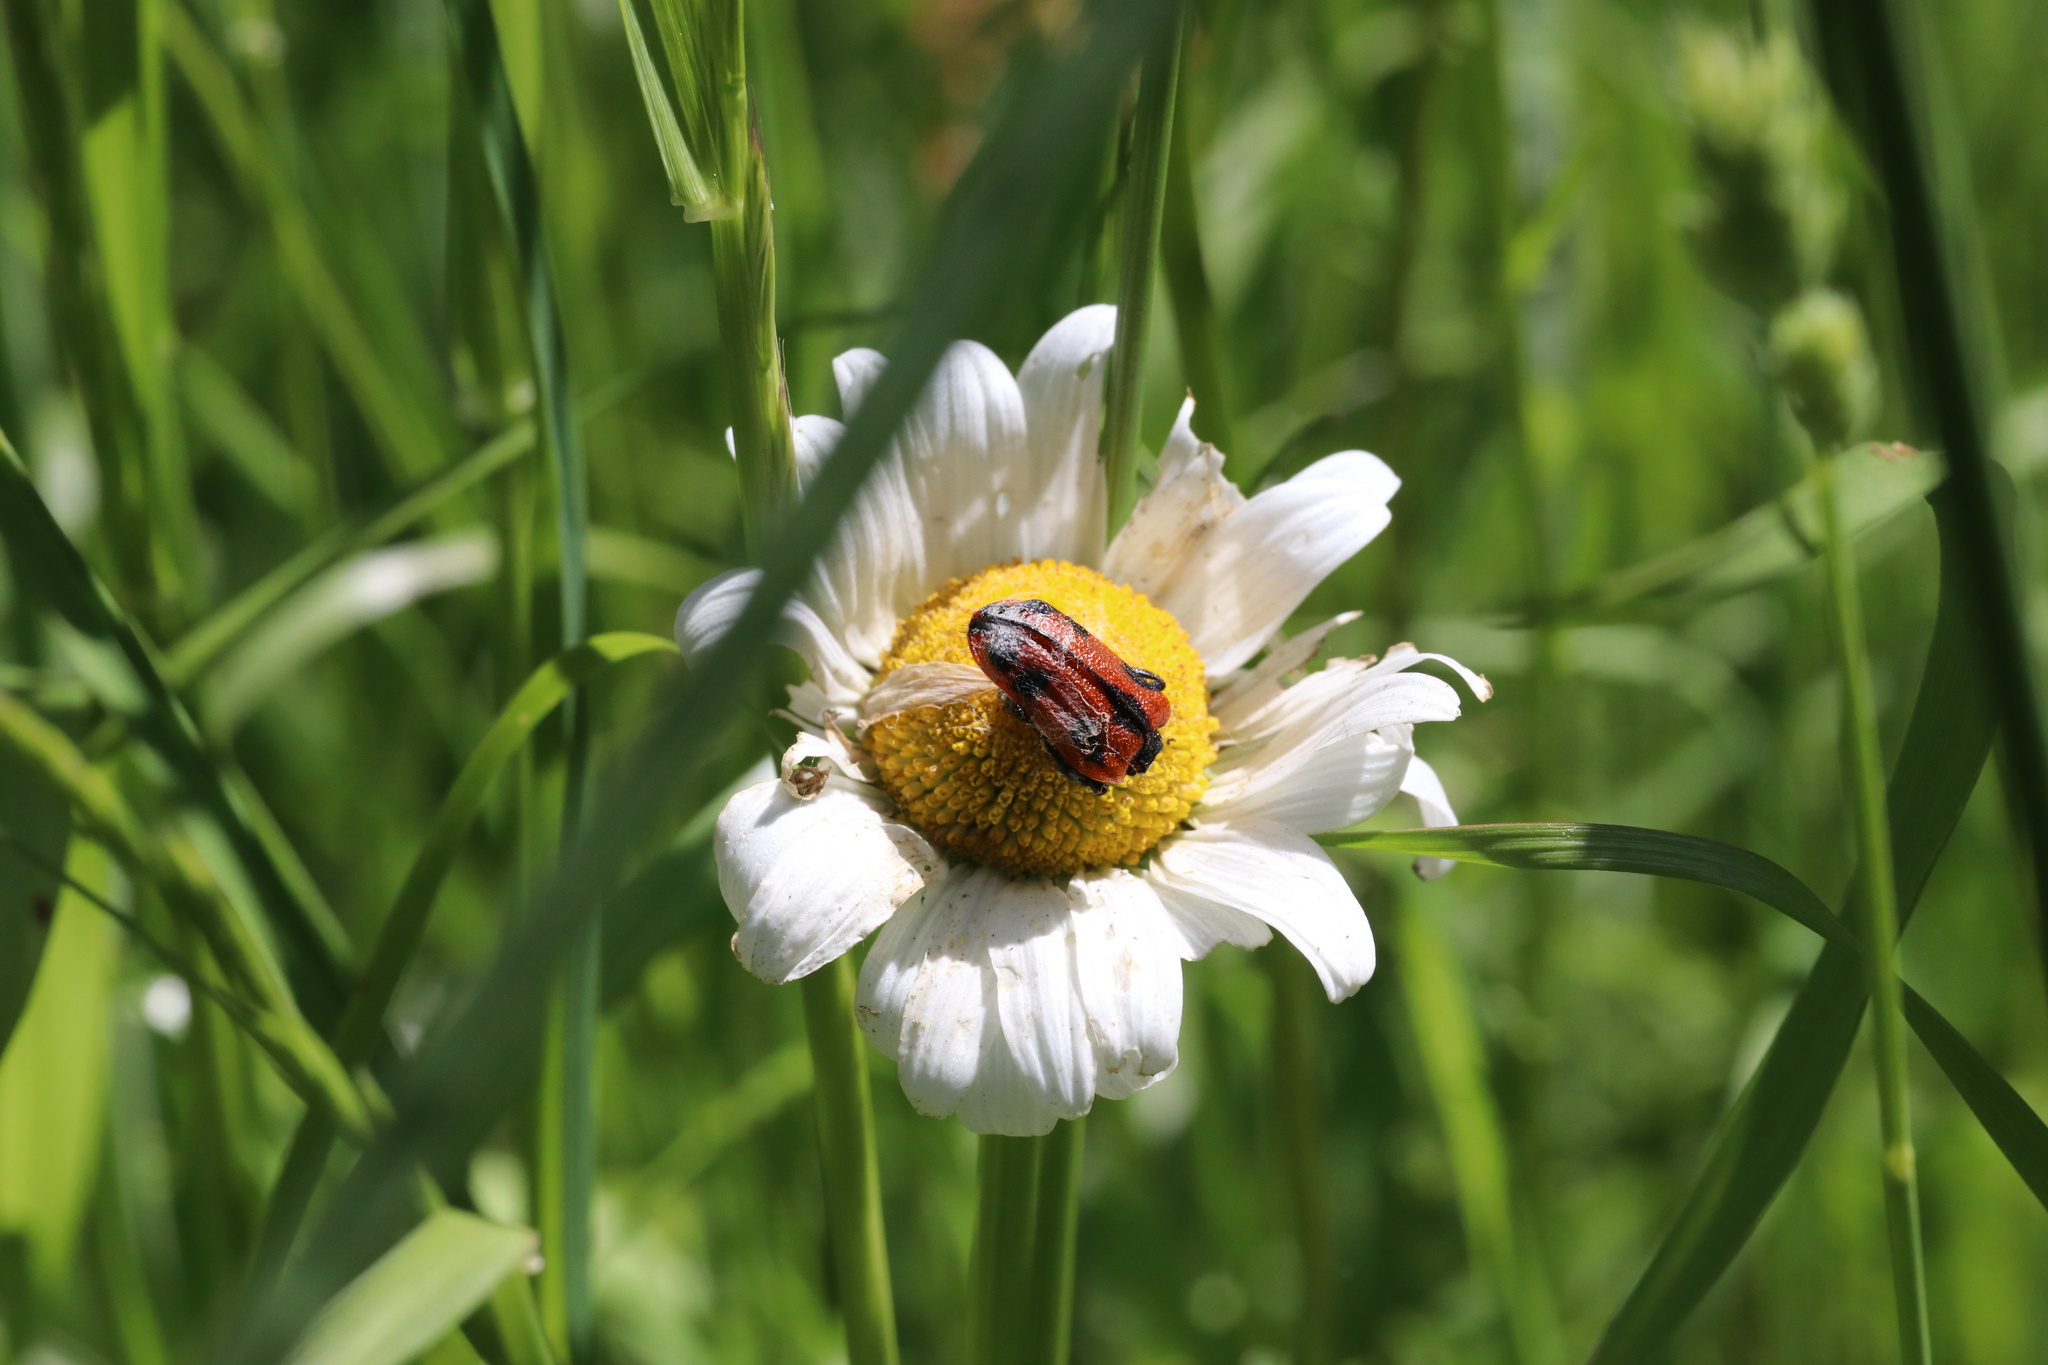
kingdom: Animalia
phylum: Arthropoda
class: Insecta
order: Coleoptera
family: Melyridae
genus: Astylus
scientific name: Astylus
